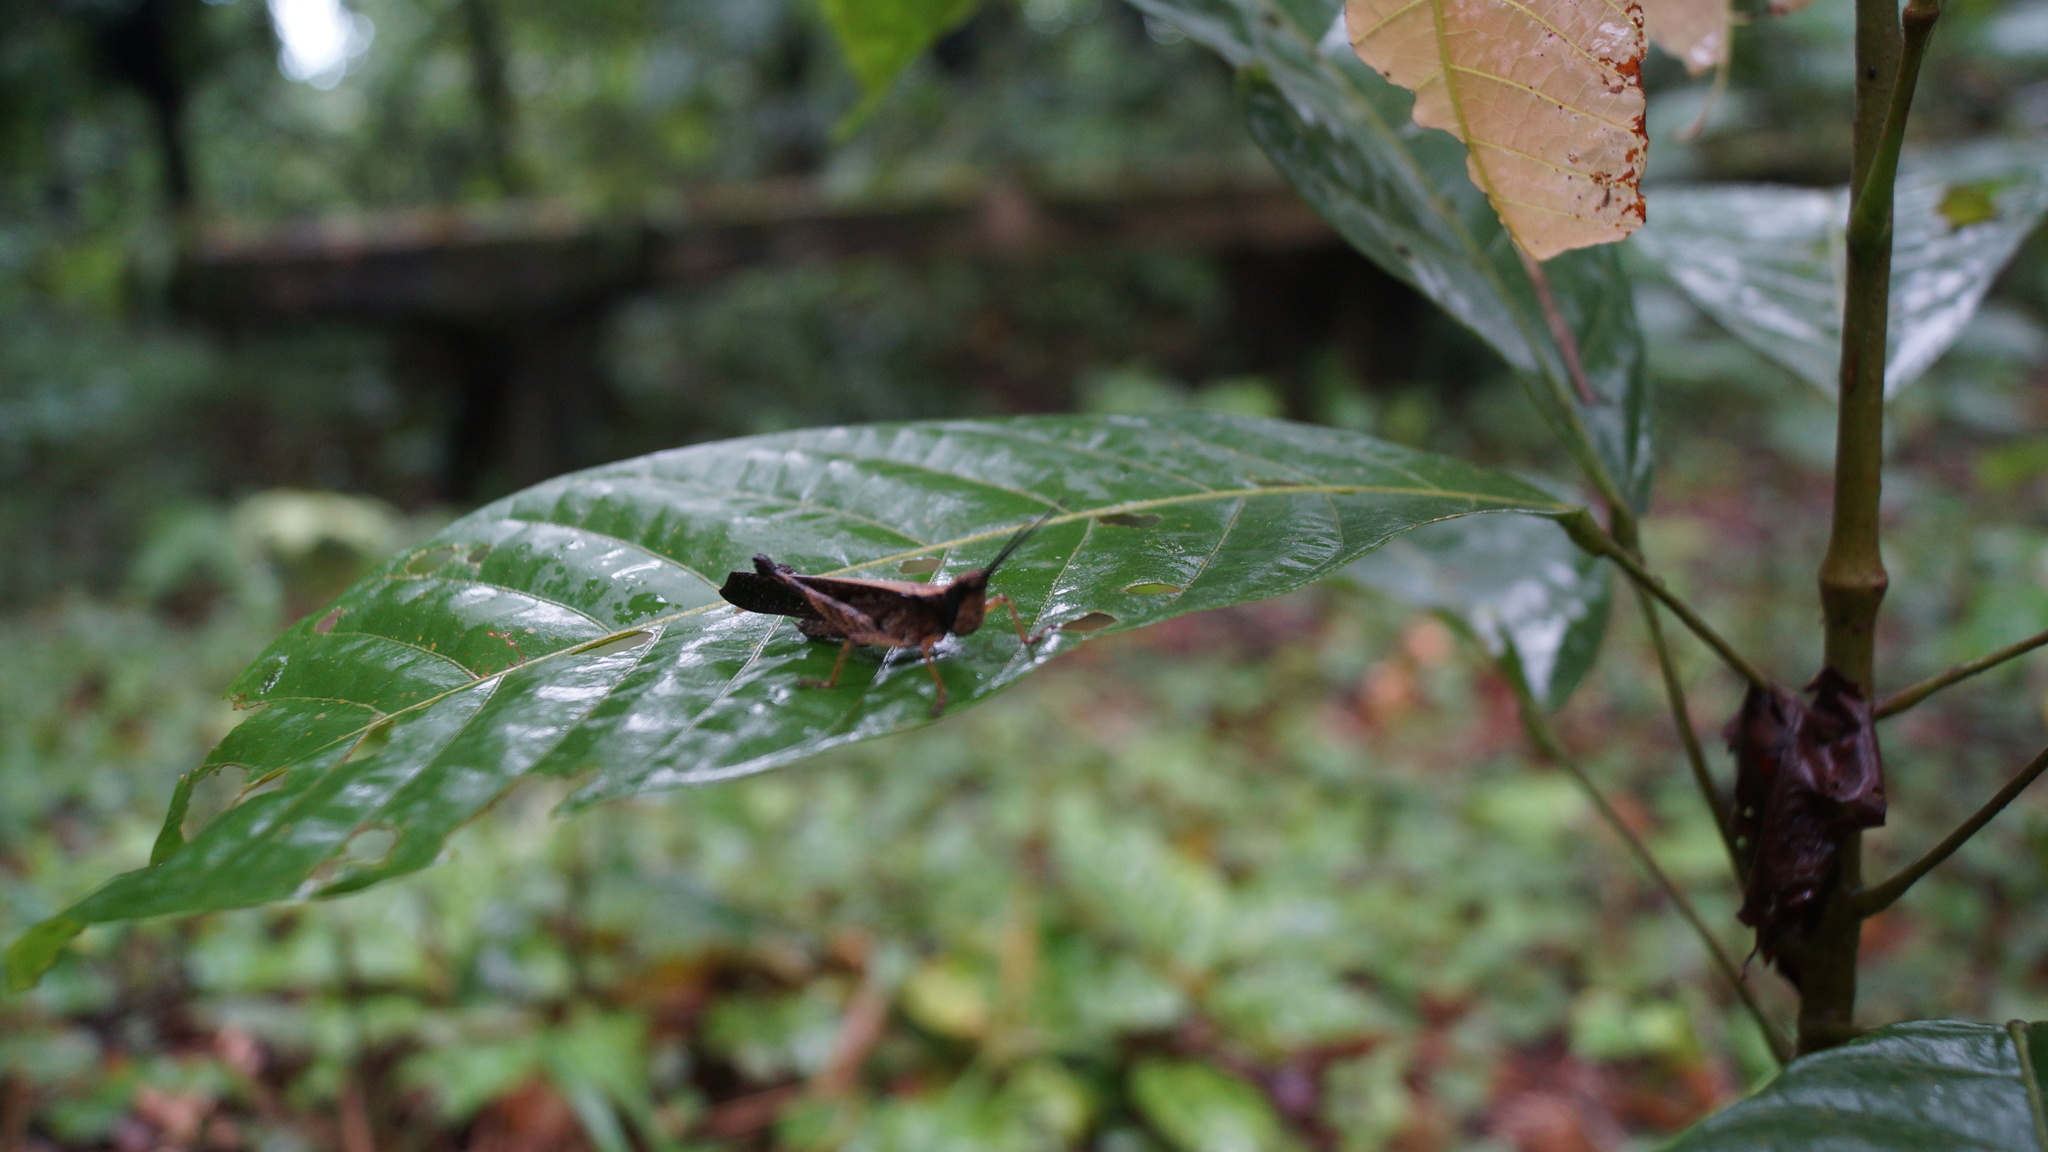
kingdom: Animalia
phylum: Arthropoda
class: Insecta
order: Orthoptera
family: Romaleidae
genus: Phaeoparia
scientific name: Phaeoparia lineaalba
